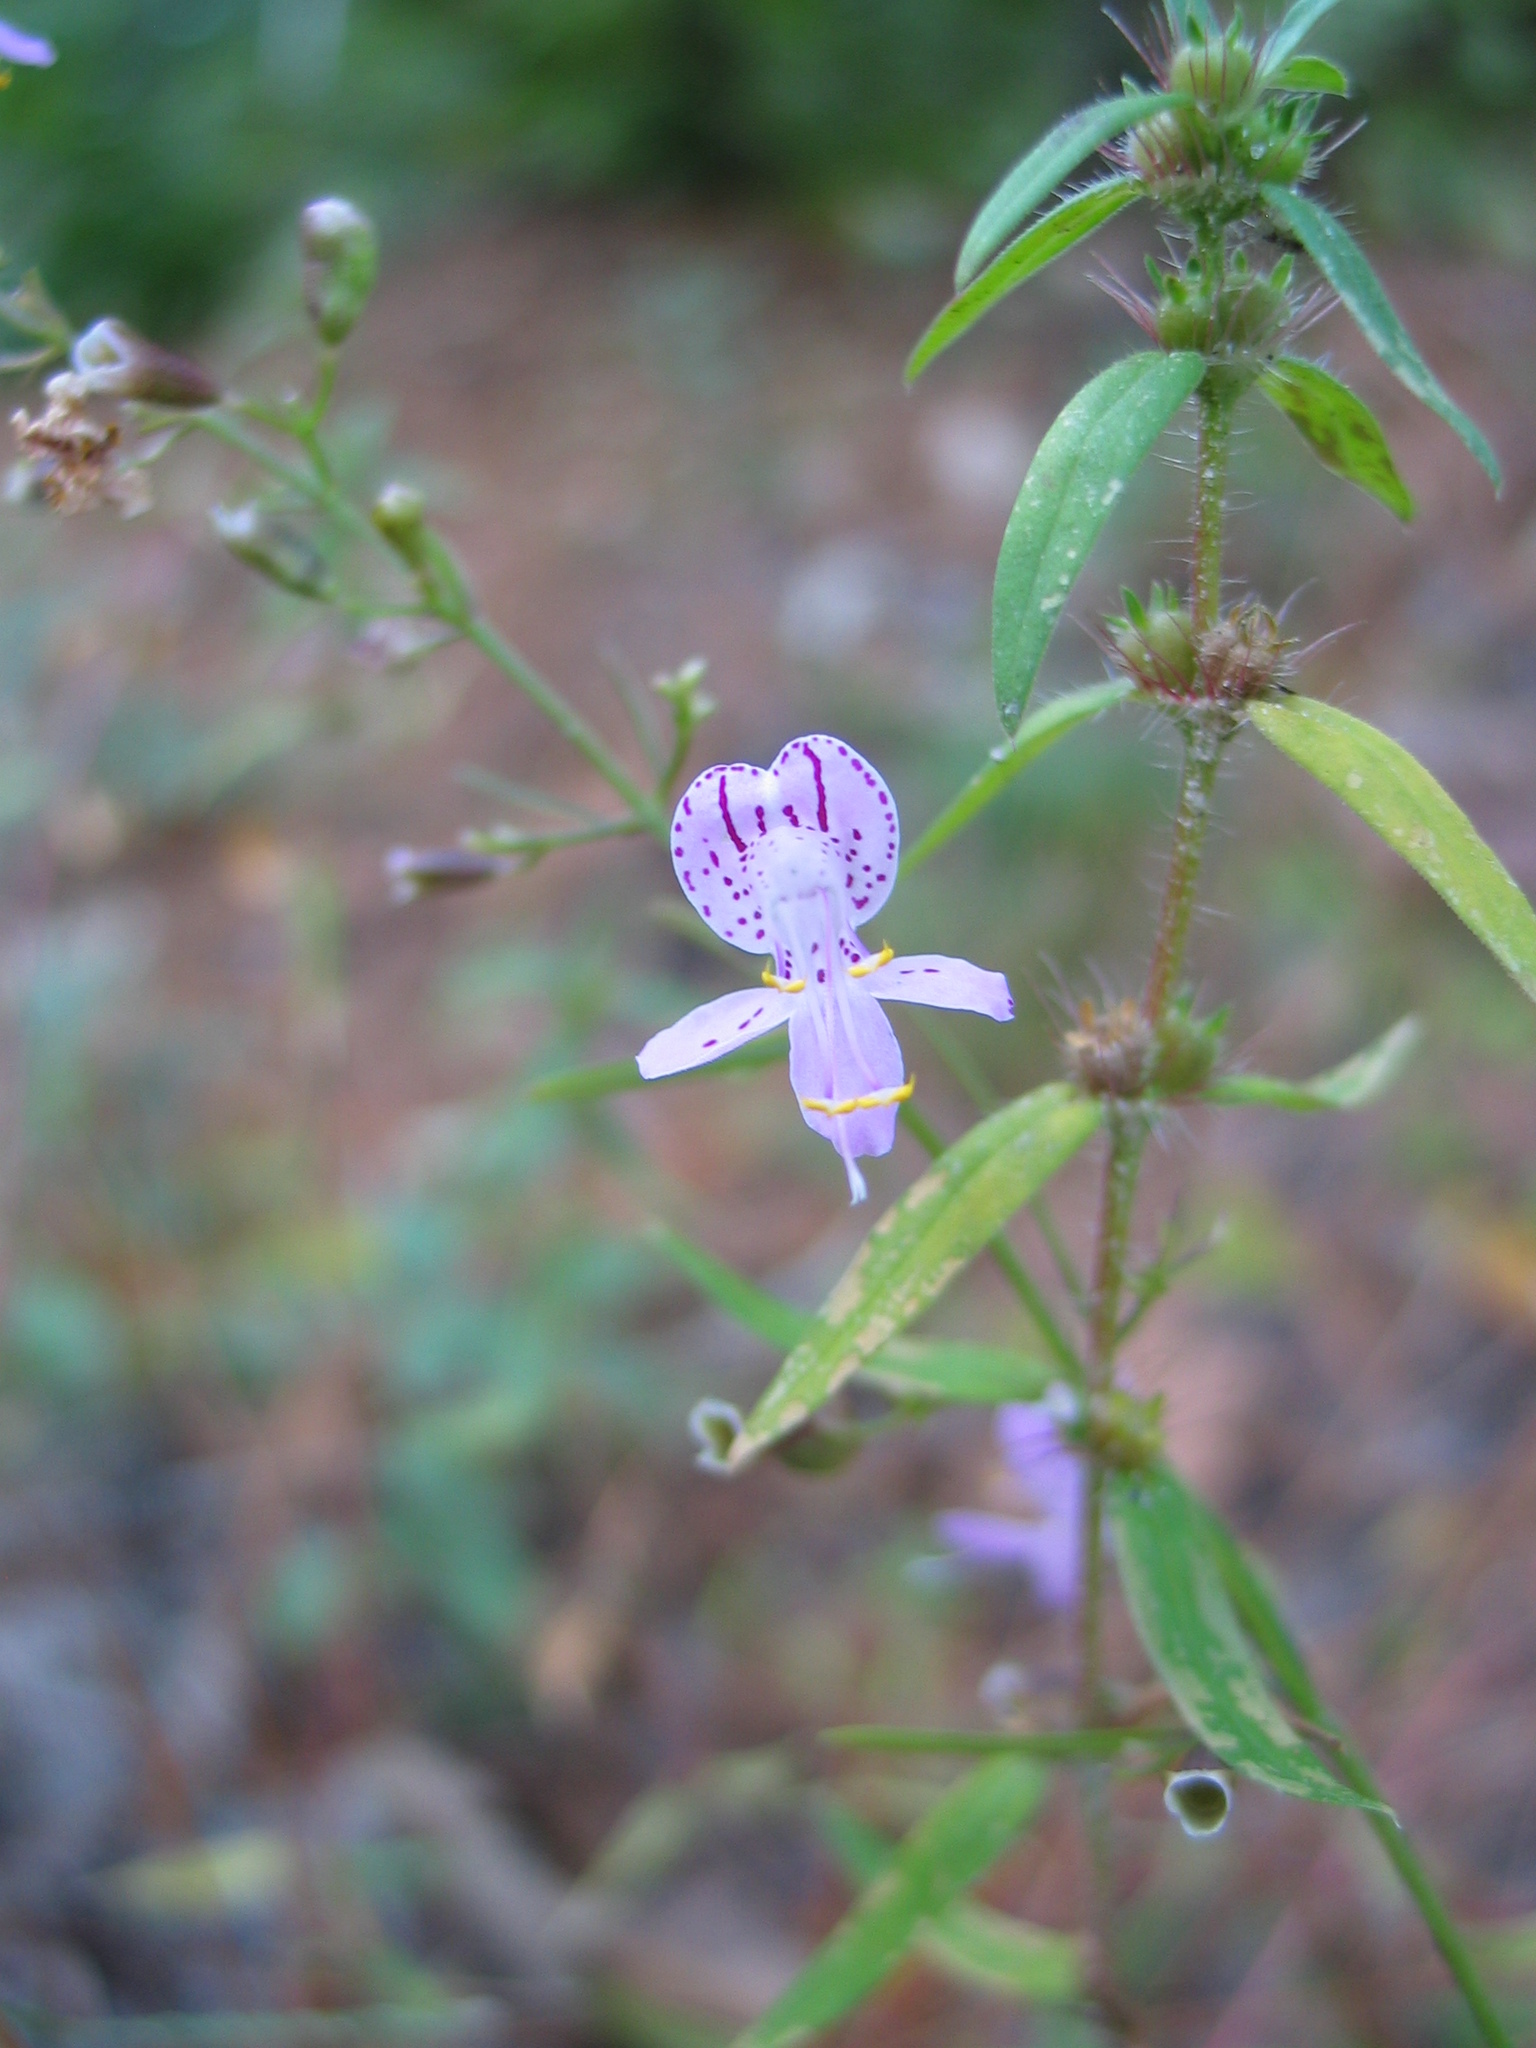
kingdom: Plantae
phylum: Tracheophyta
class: Magnoliopsida
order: Lamiales
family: Lamiaceae
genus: Dicerandra
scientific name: Dicerandra fumella
